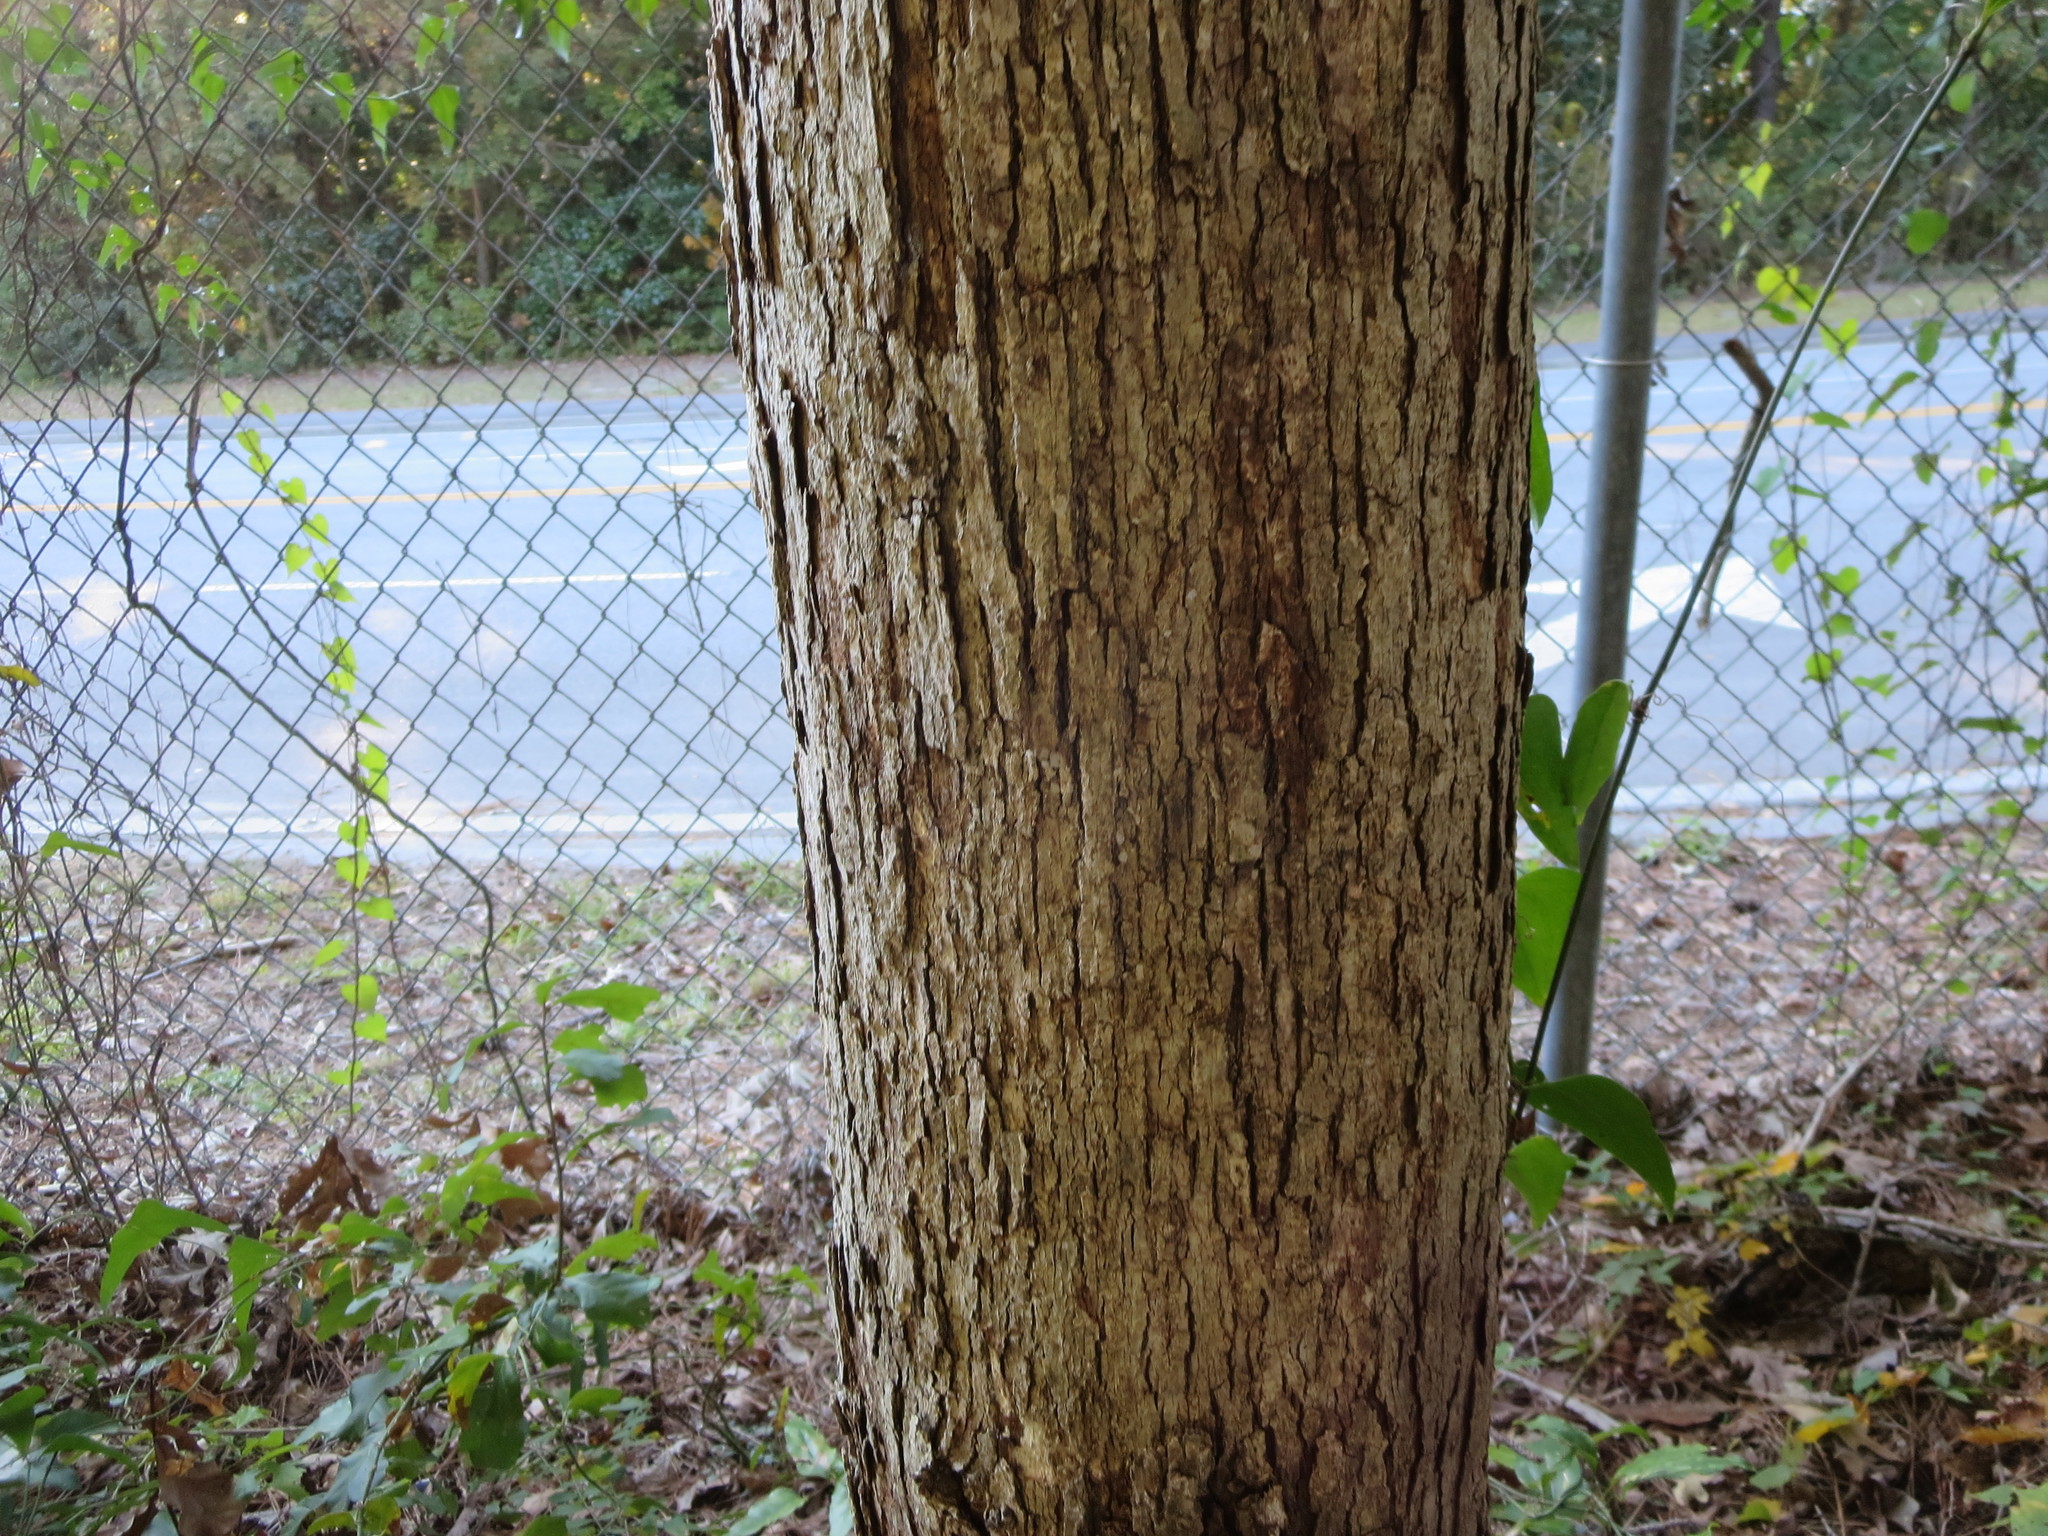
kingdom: Plantae
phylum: Tracheophyta
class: Magnoliopsida
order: Fagales
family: Fagaceae
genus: Quercus
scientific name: Quercus alba
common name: White oak
